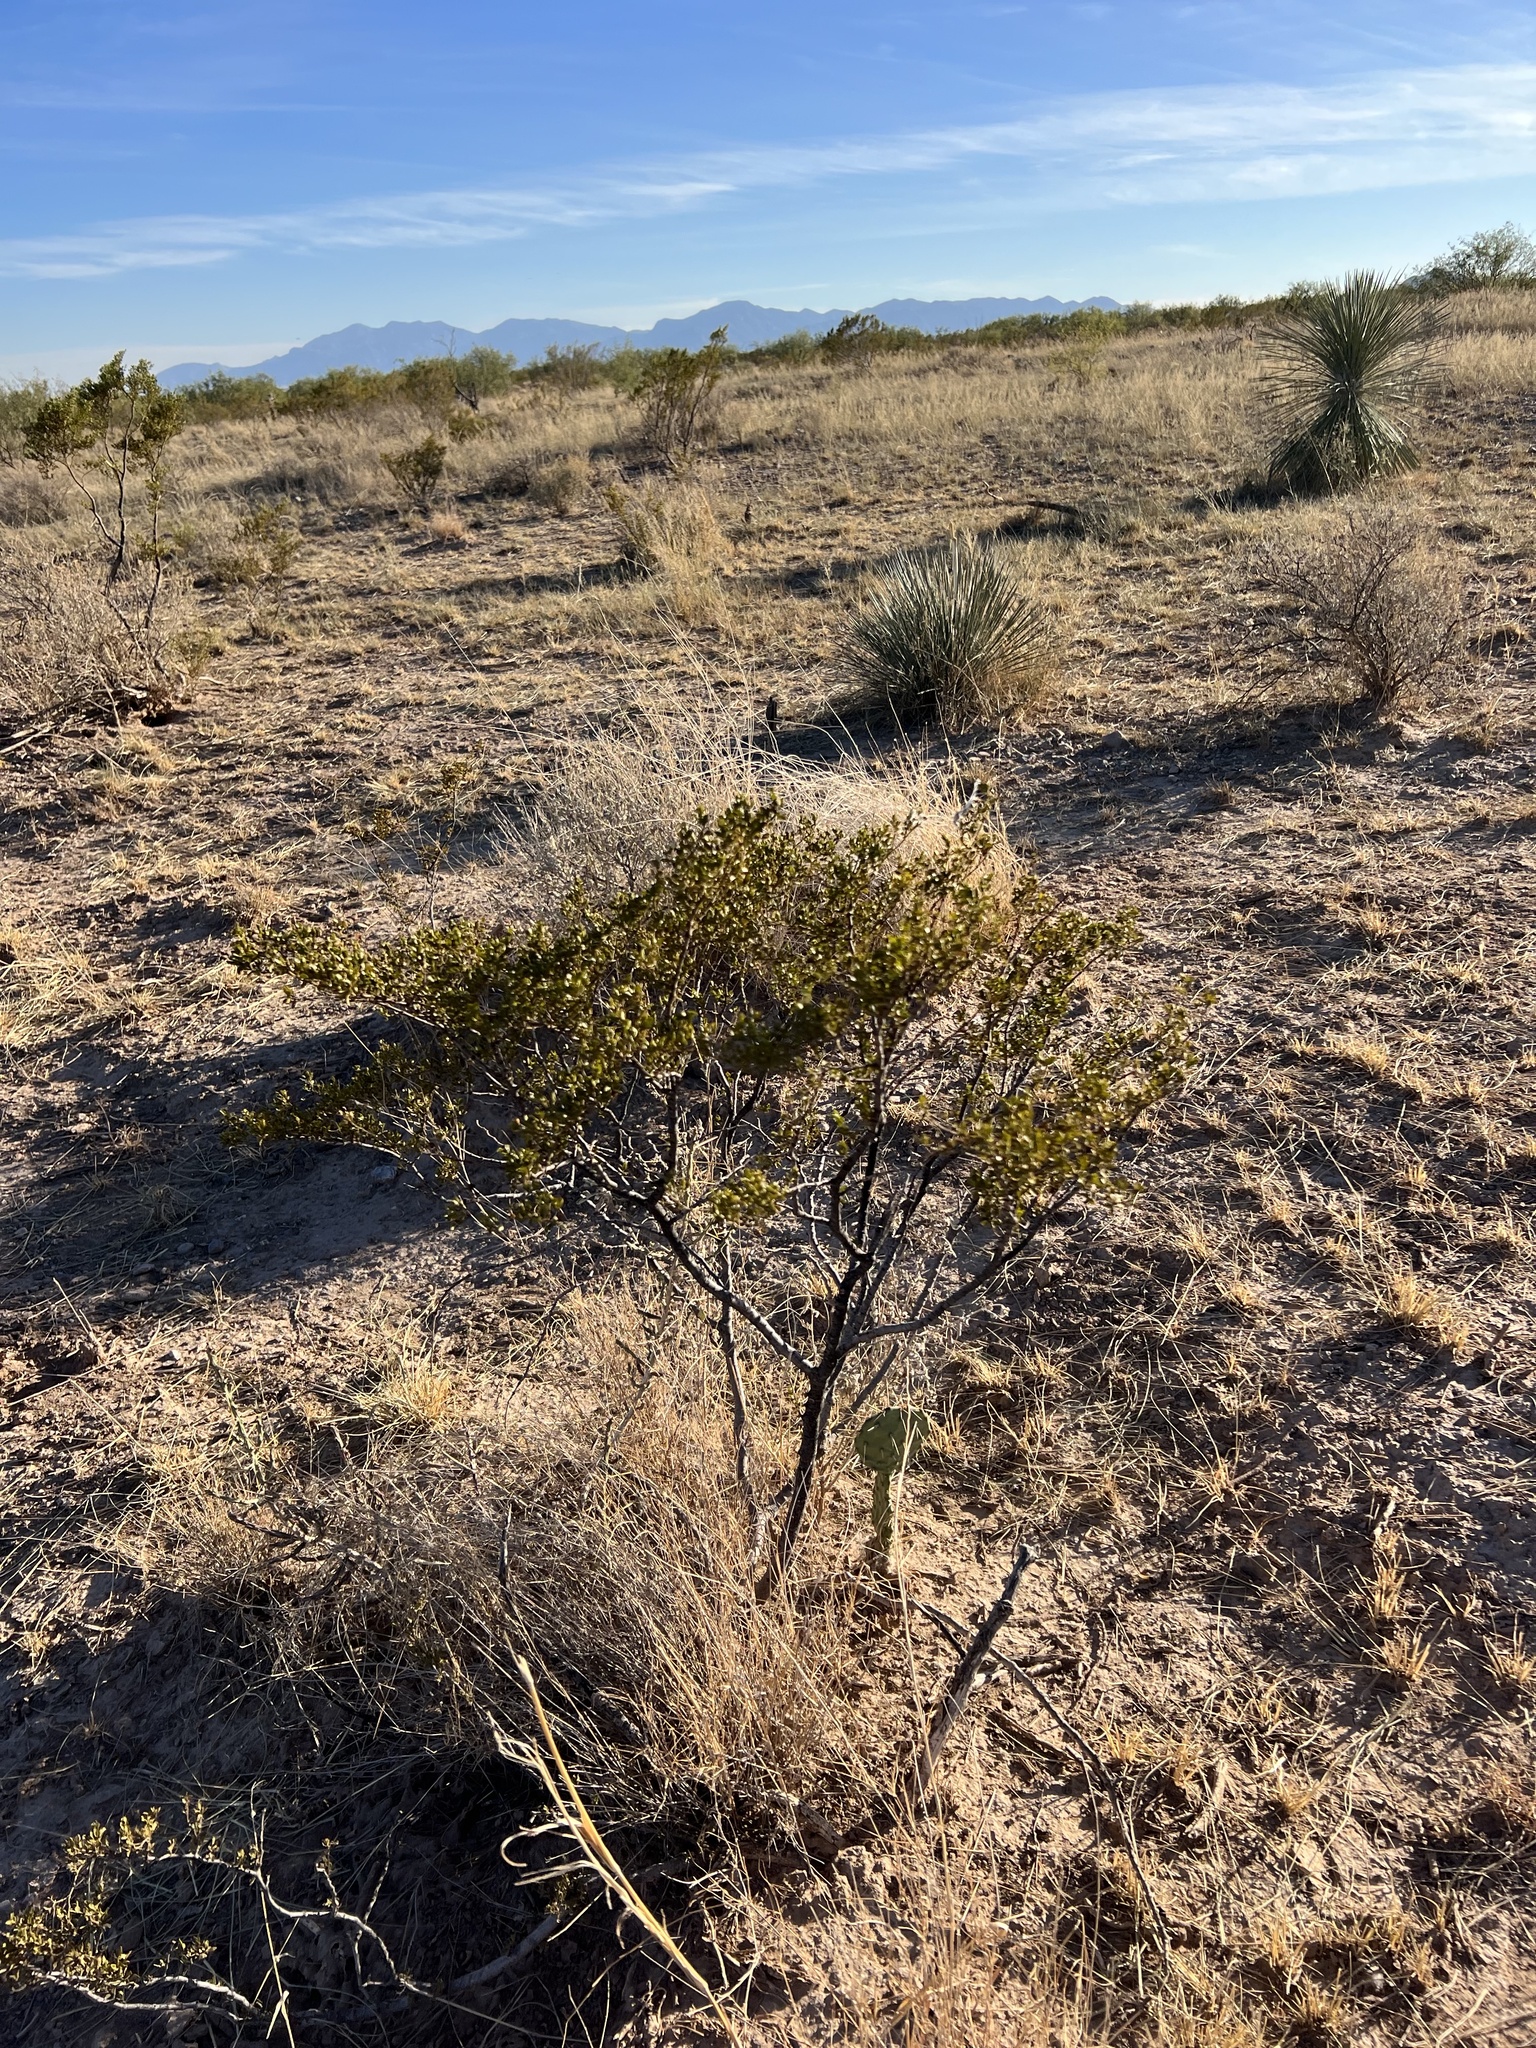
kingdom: Plantae
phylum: Tracheophyta
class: Magnoliopsida
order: Zygophyllales
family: Zygophyllaceae
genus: Larrea
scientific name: Larrea tridentata
